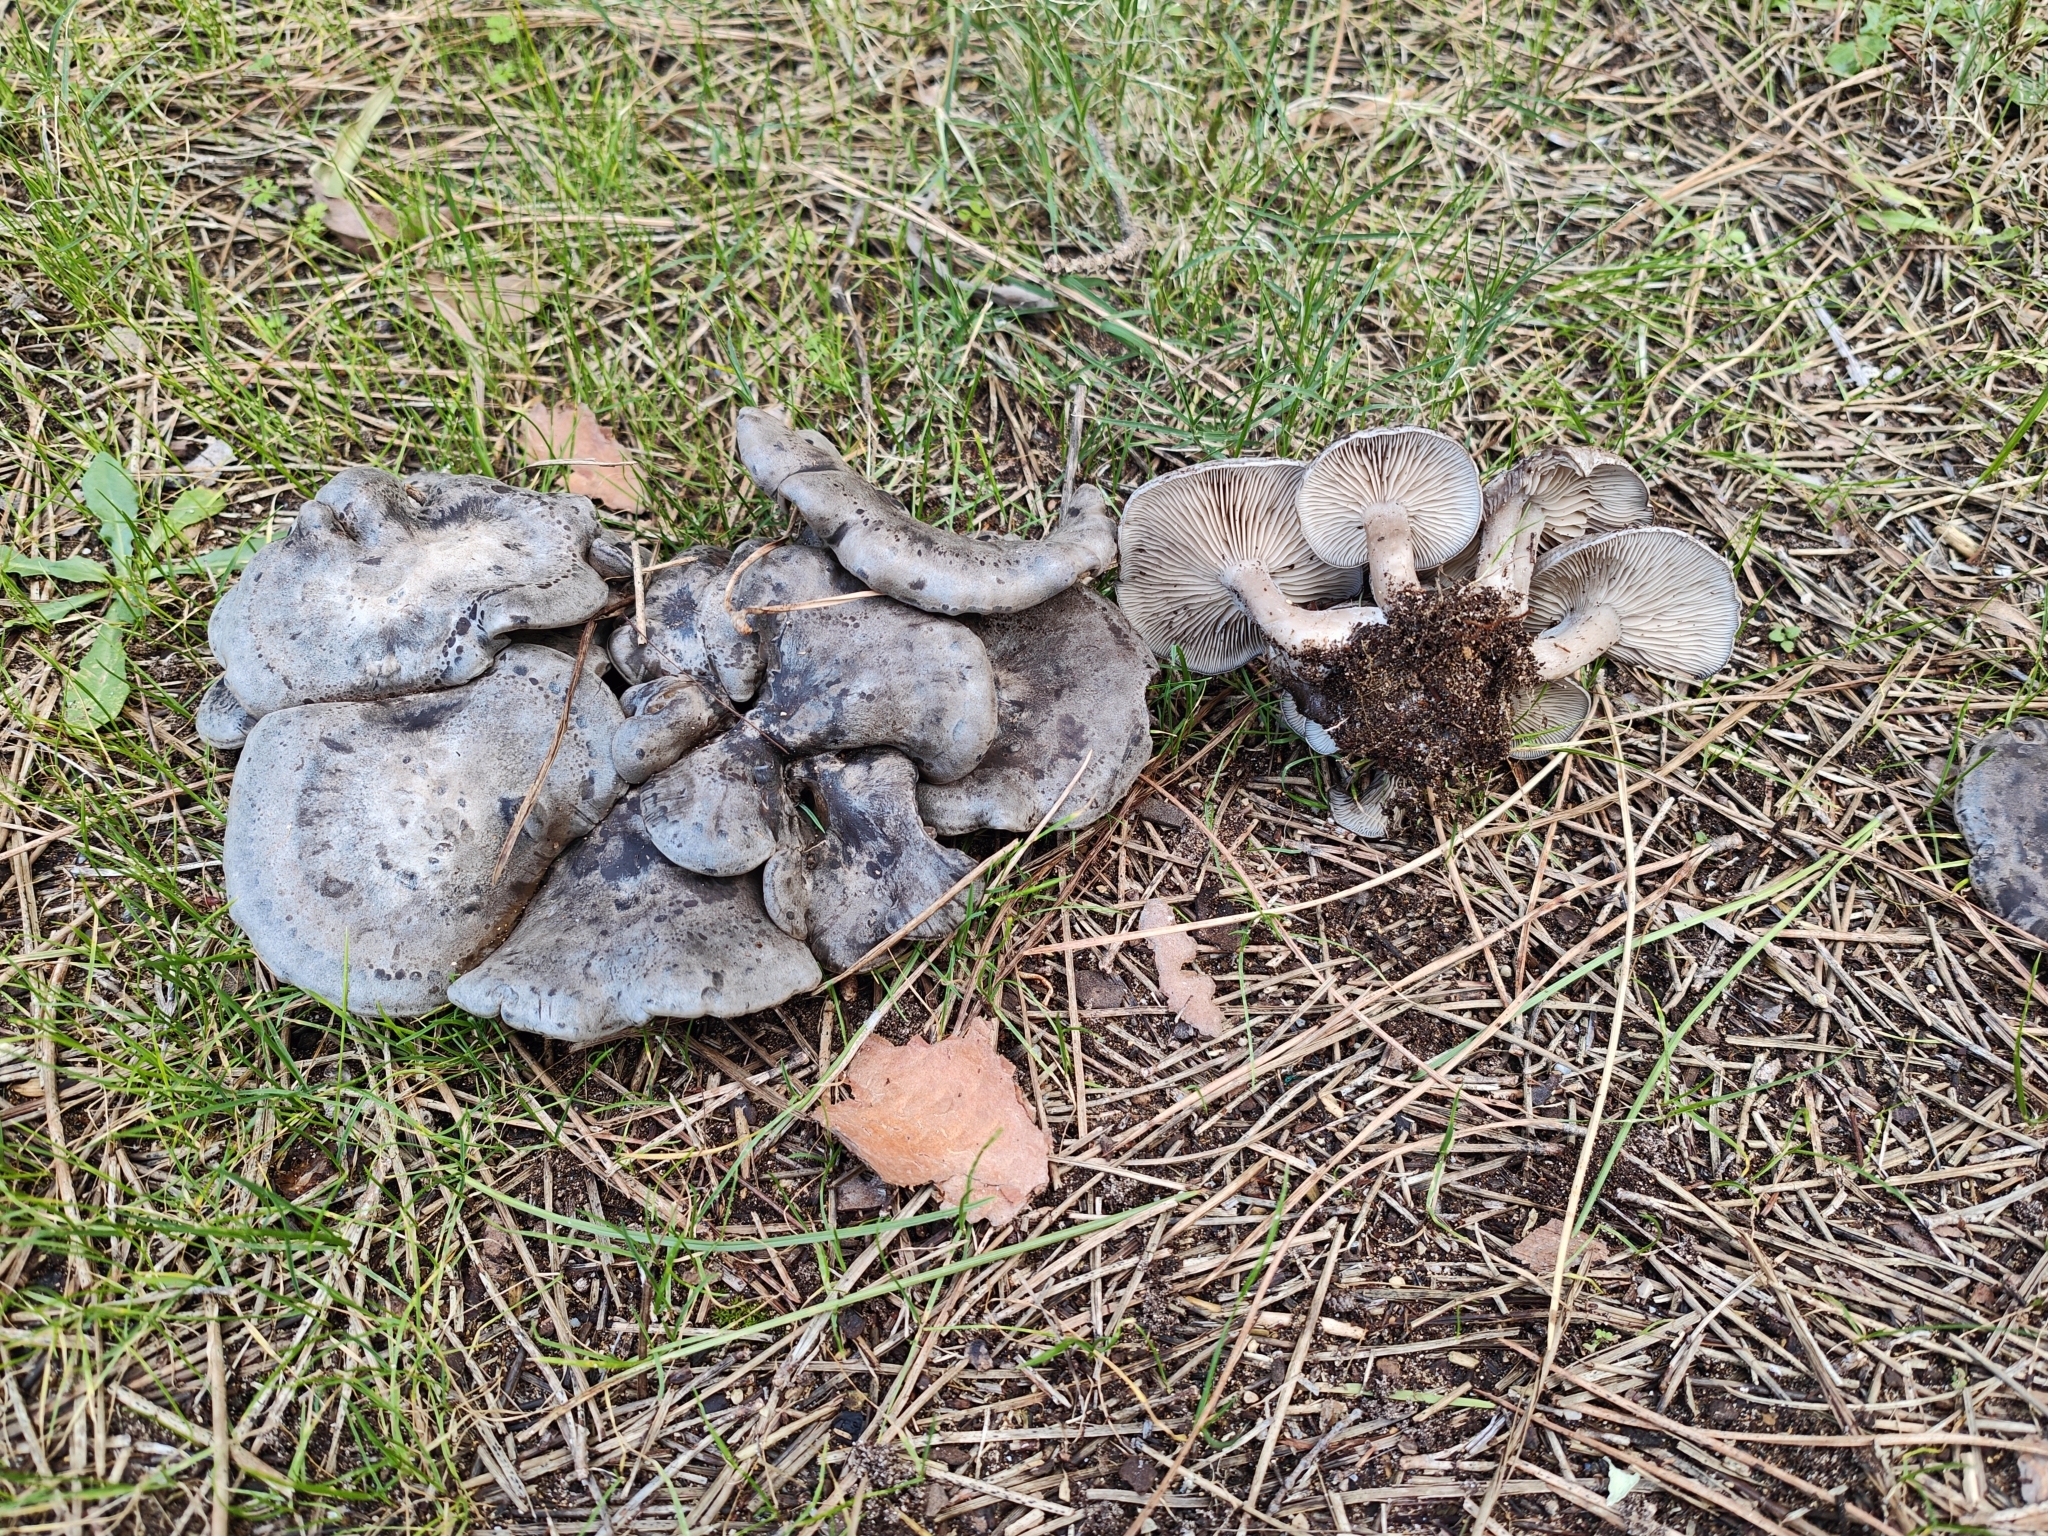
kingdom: Fungi
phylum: Basidiomycota
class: Agaricomycetes
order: Agaricales
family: Lyophyllaceae
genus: Calocybe
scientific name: Calocybe littoralis
